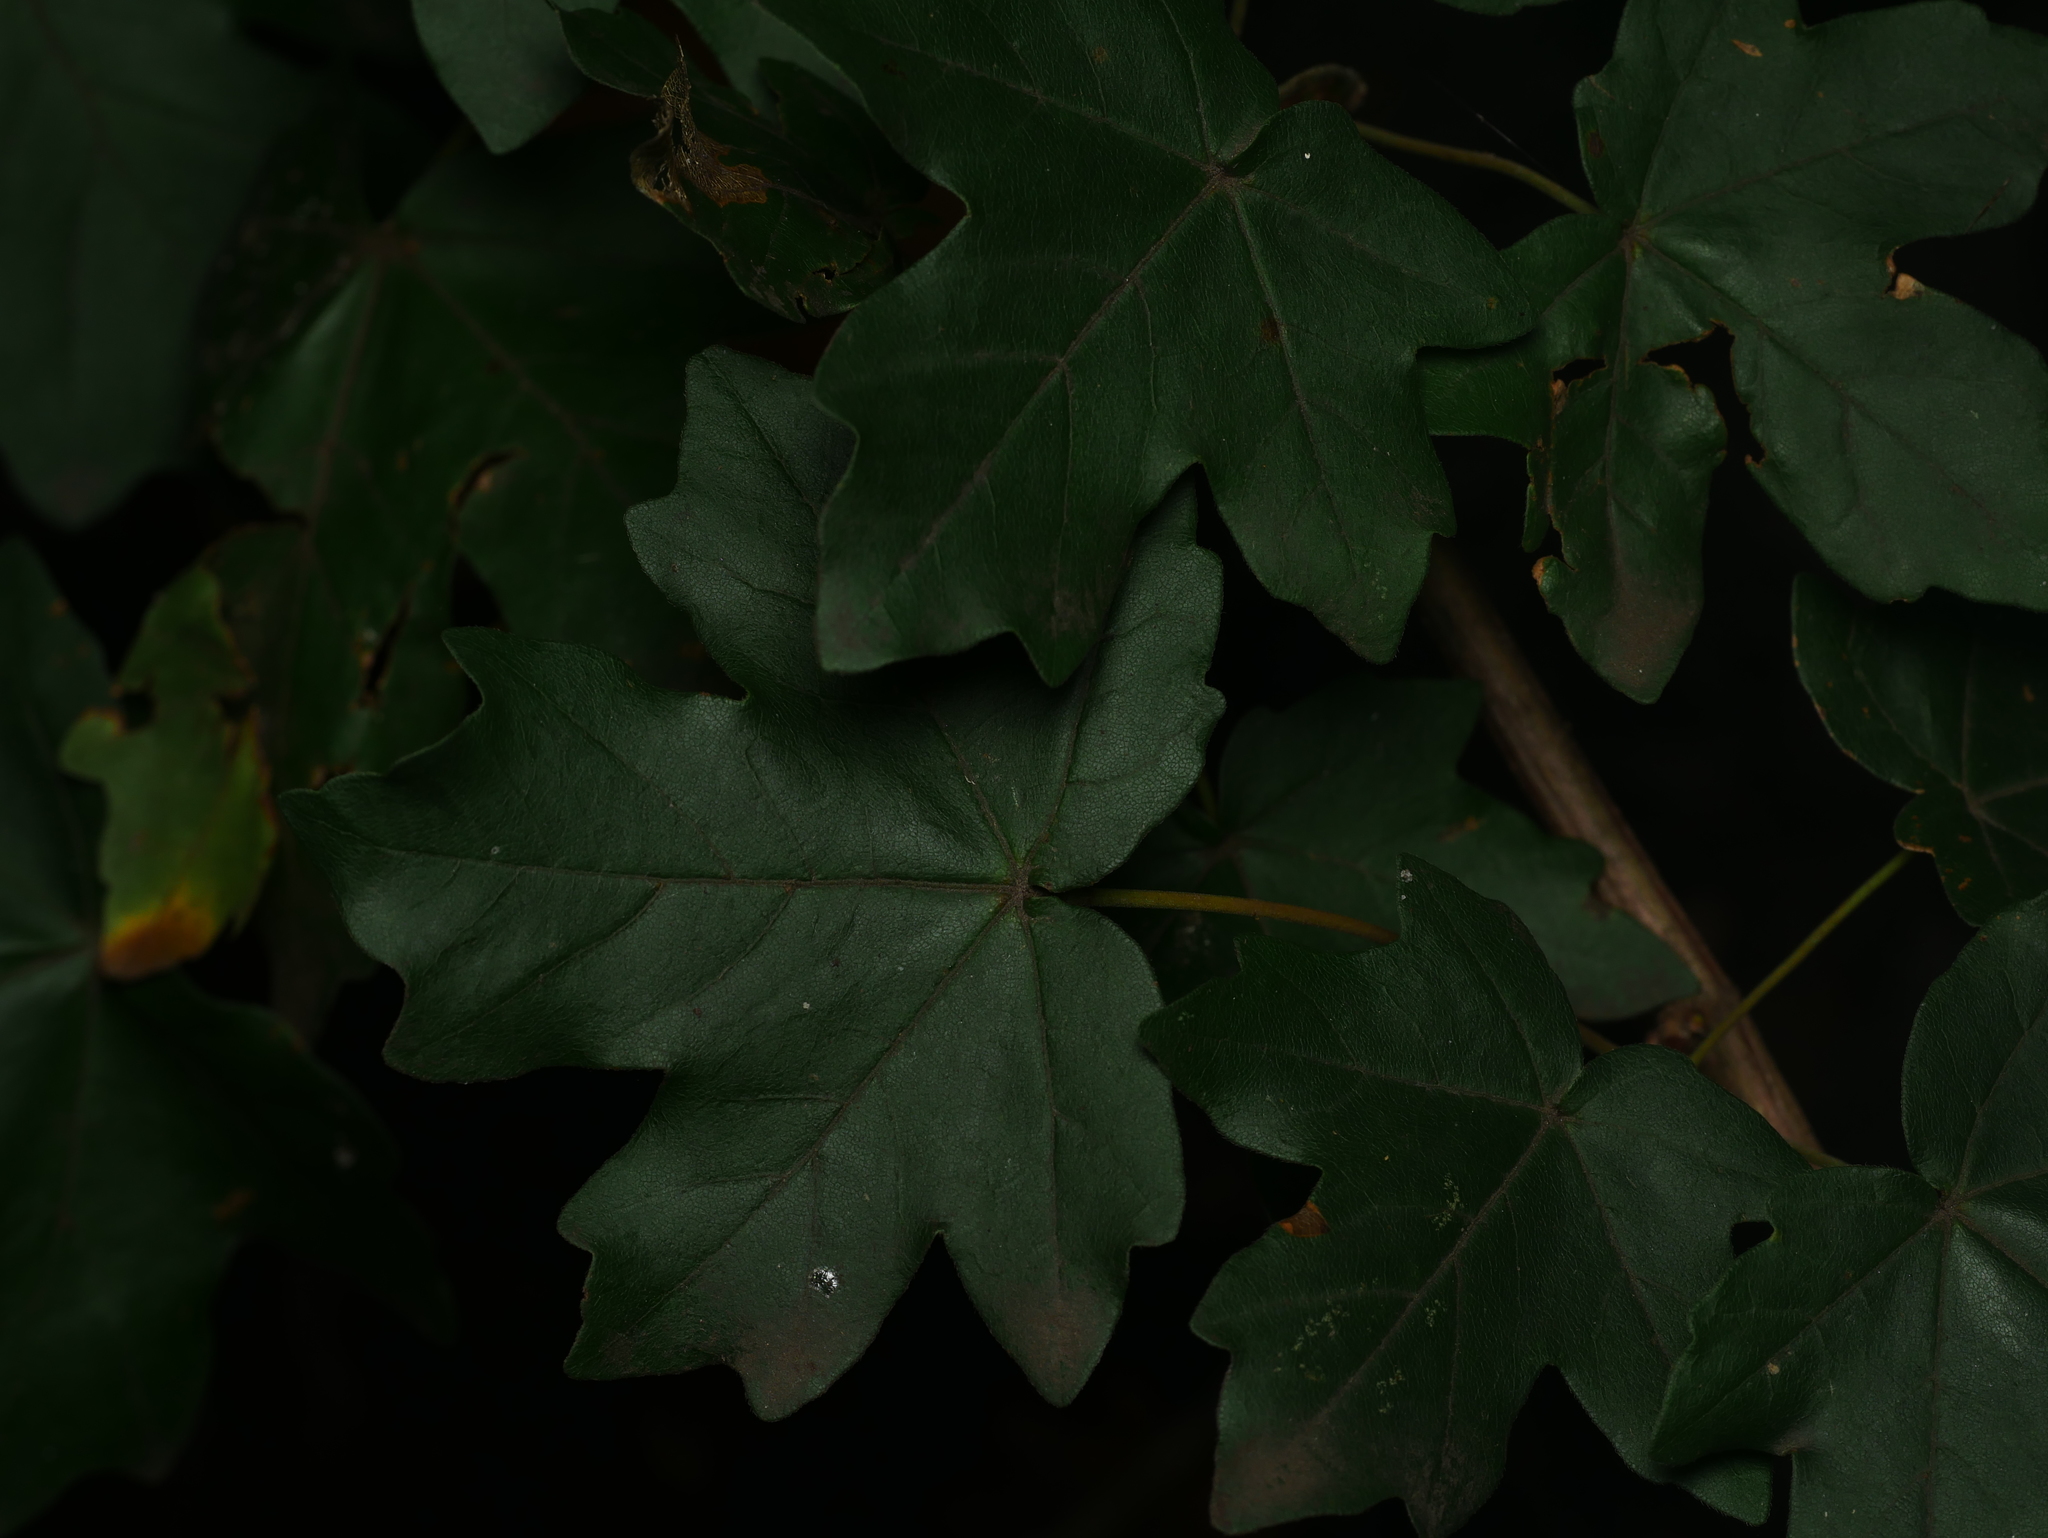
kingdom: Plantae
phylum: Tracheophyta
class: Magnoliopsida
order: Sapindales
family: Sapindaceae
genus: Acer
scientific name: Acer campestre
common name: Field maple
